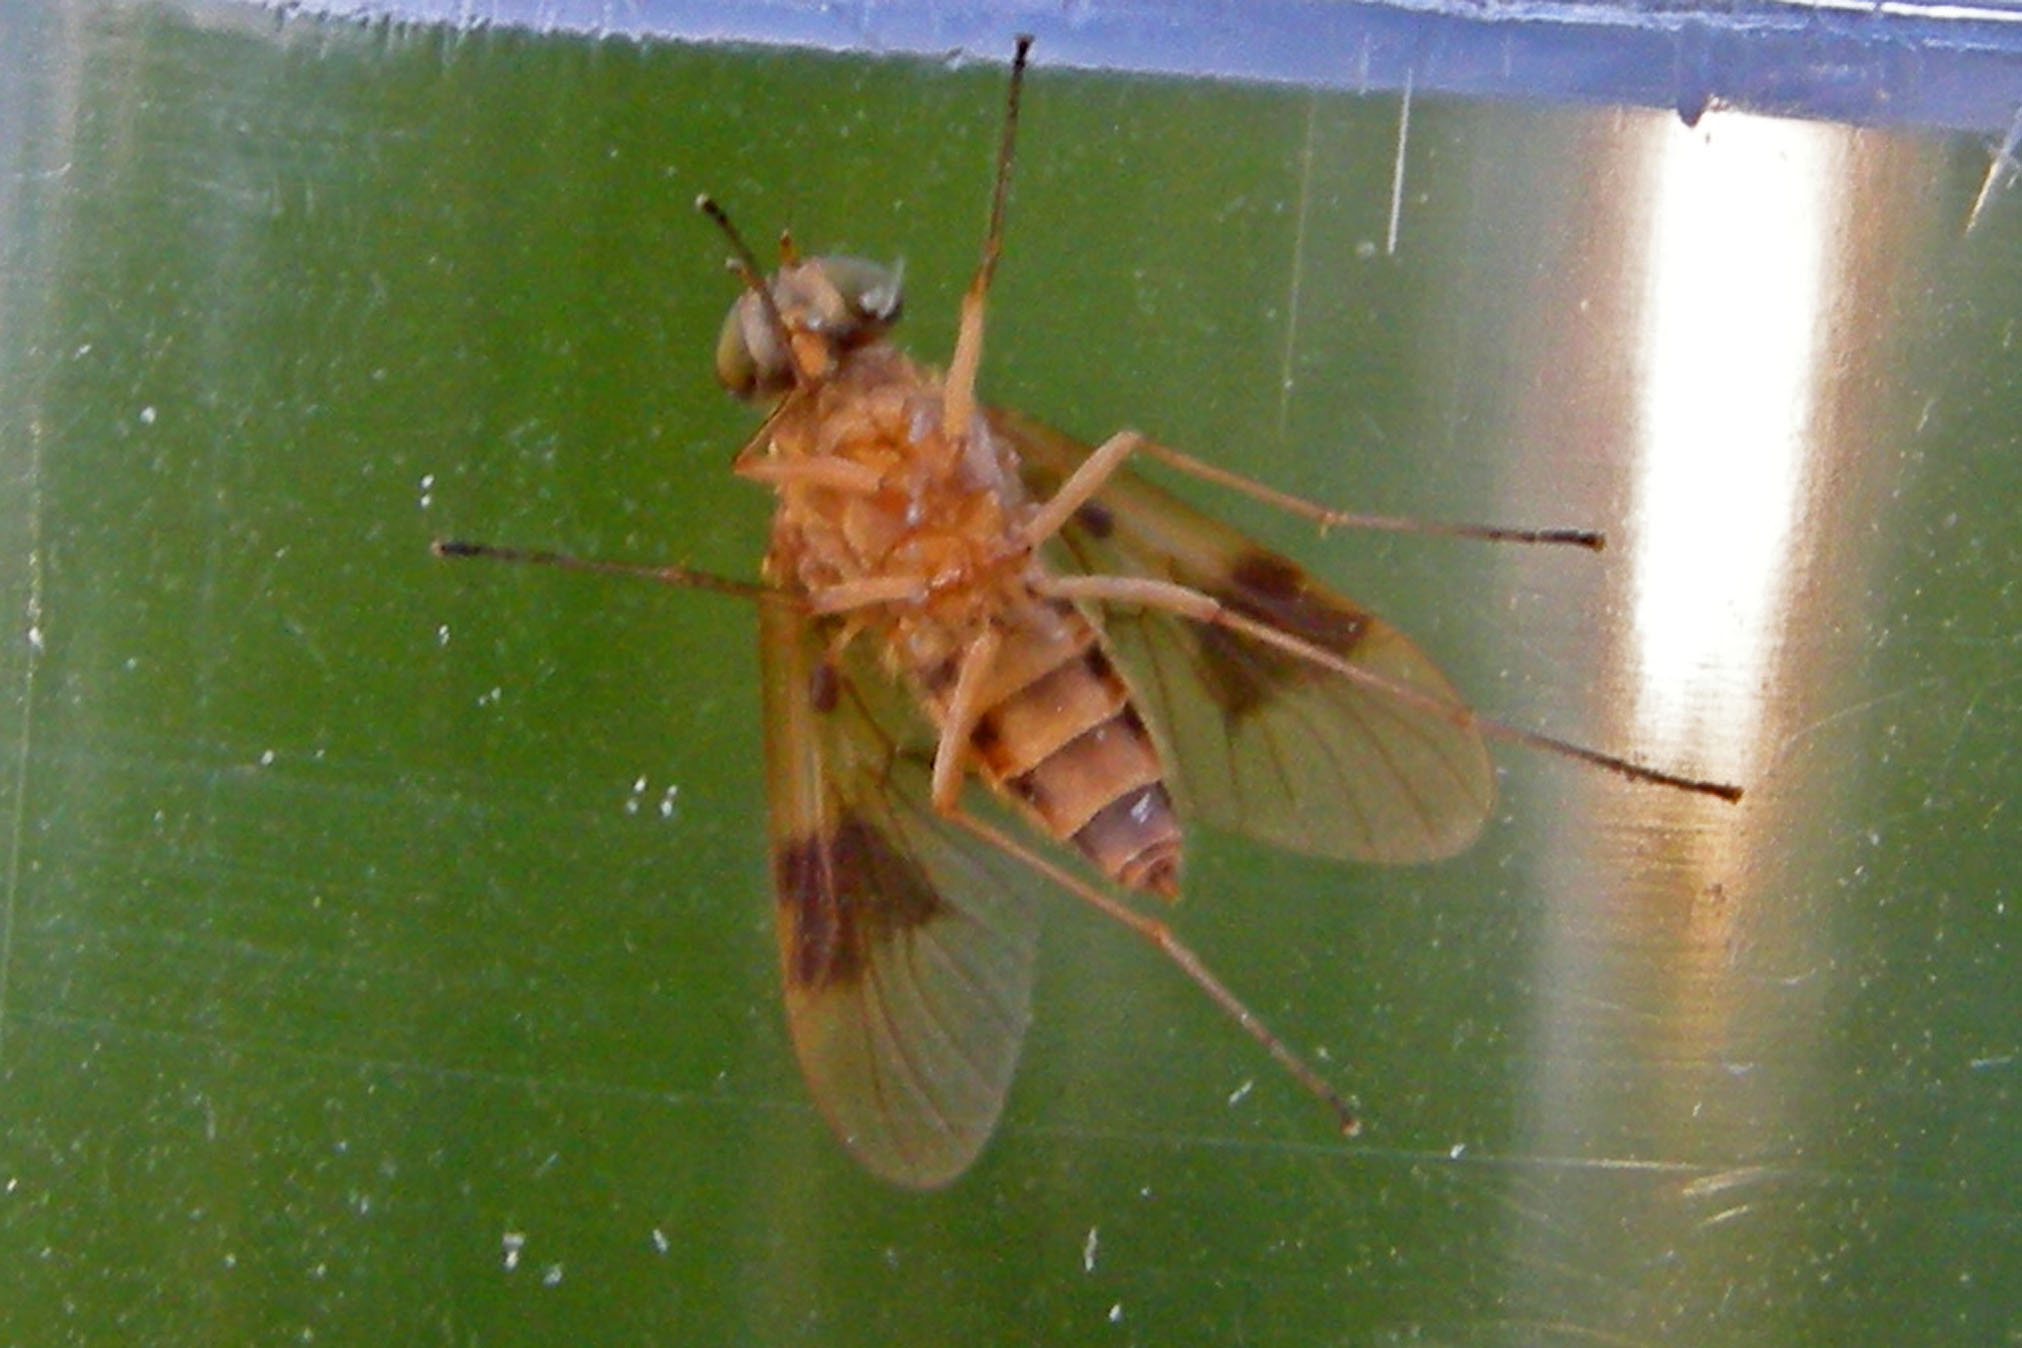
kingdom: Animalia
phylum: Arthropoda
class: Insecta
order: Diptera
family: Rhagionidae
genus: Chrysopilus
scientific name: Chrysopilus quadratus
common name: Quadrate snipe fly
